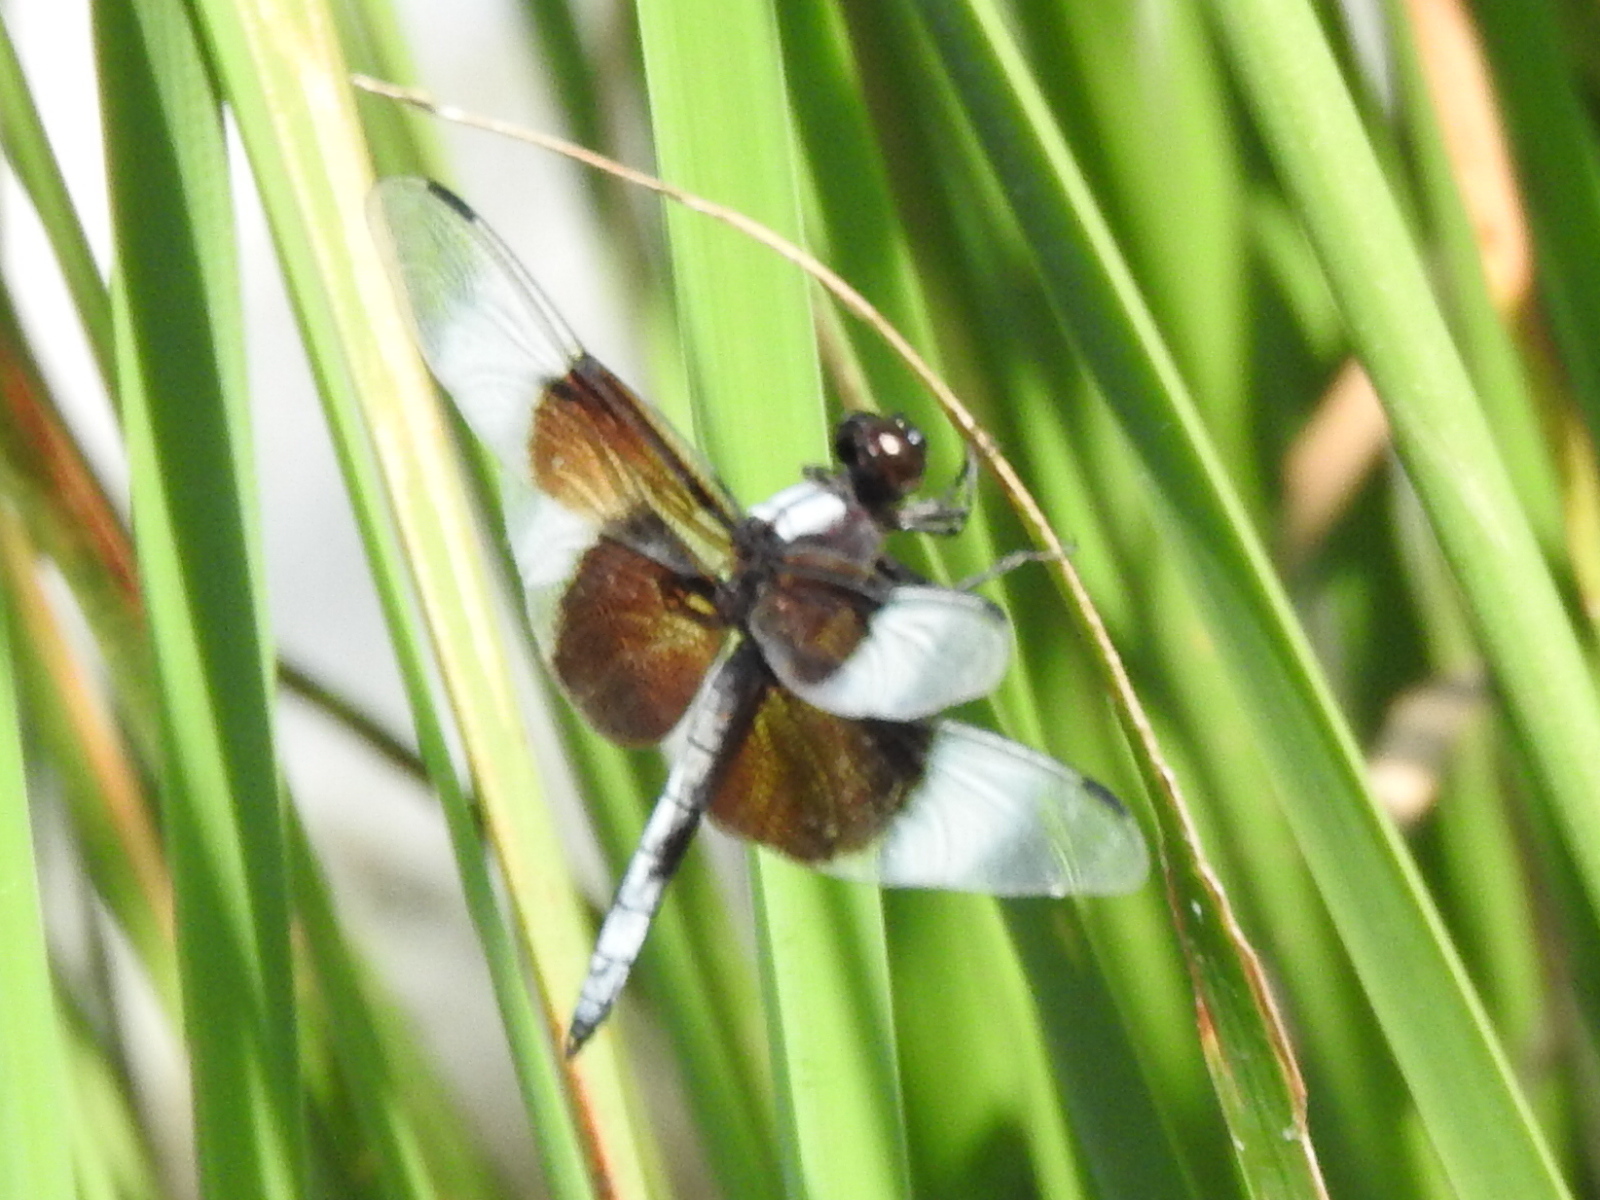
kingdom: Animalia
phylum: Arthropoda
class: Insecta
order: Odonata
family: Libellulidae
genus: Libellula
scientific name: Libellula luctuosa
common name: Widow skimmer
